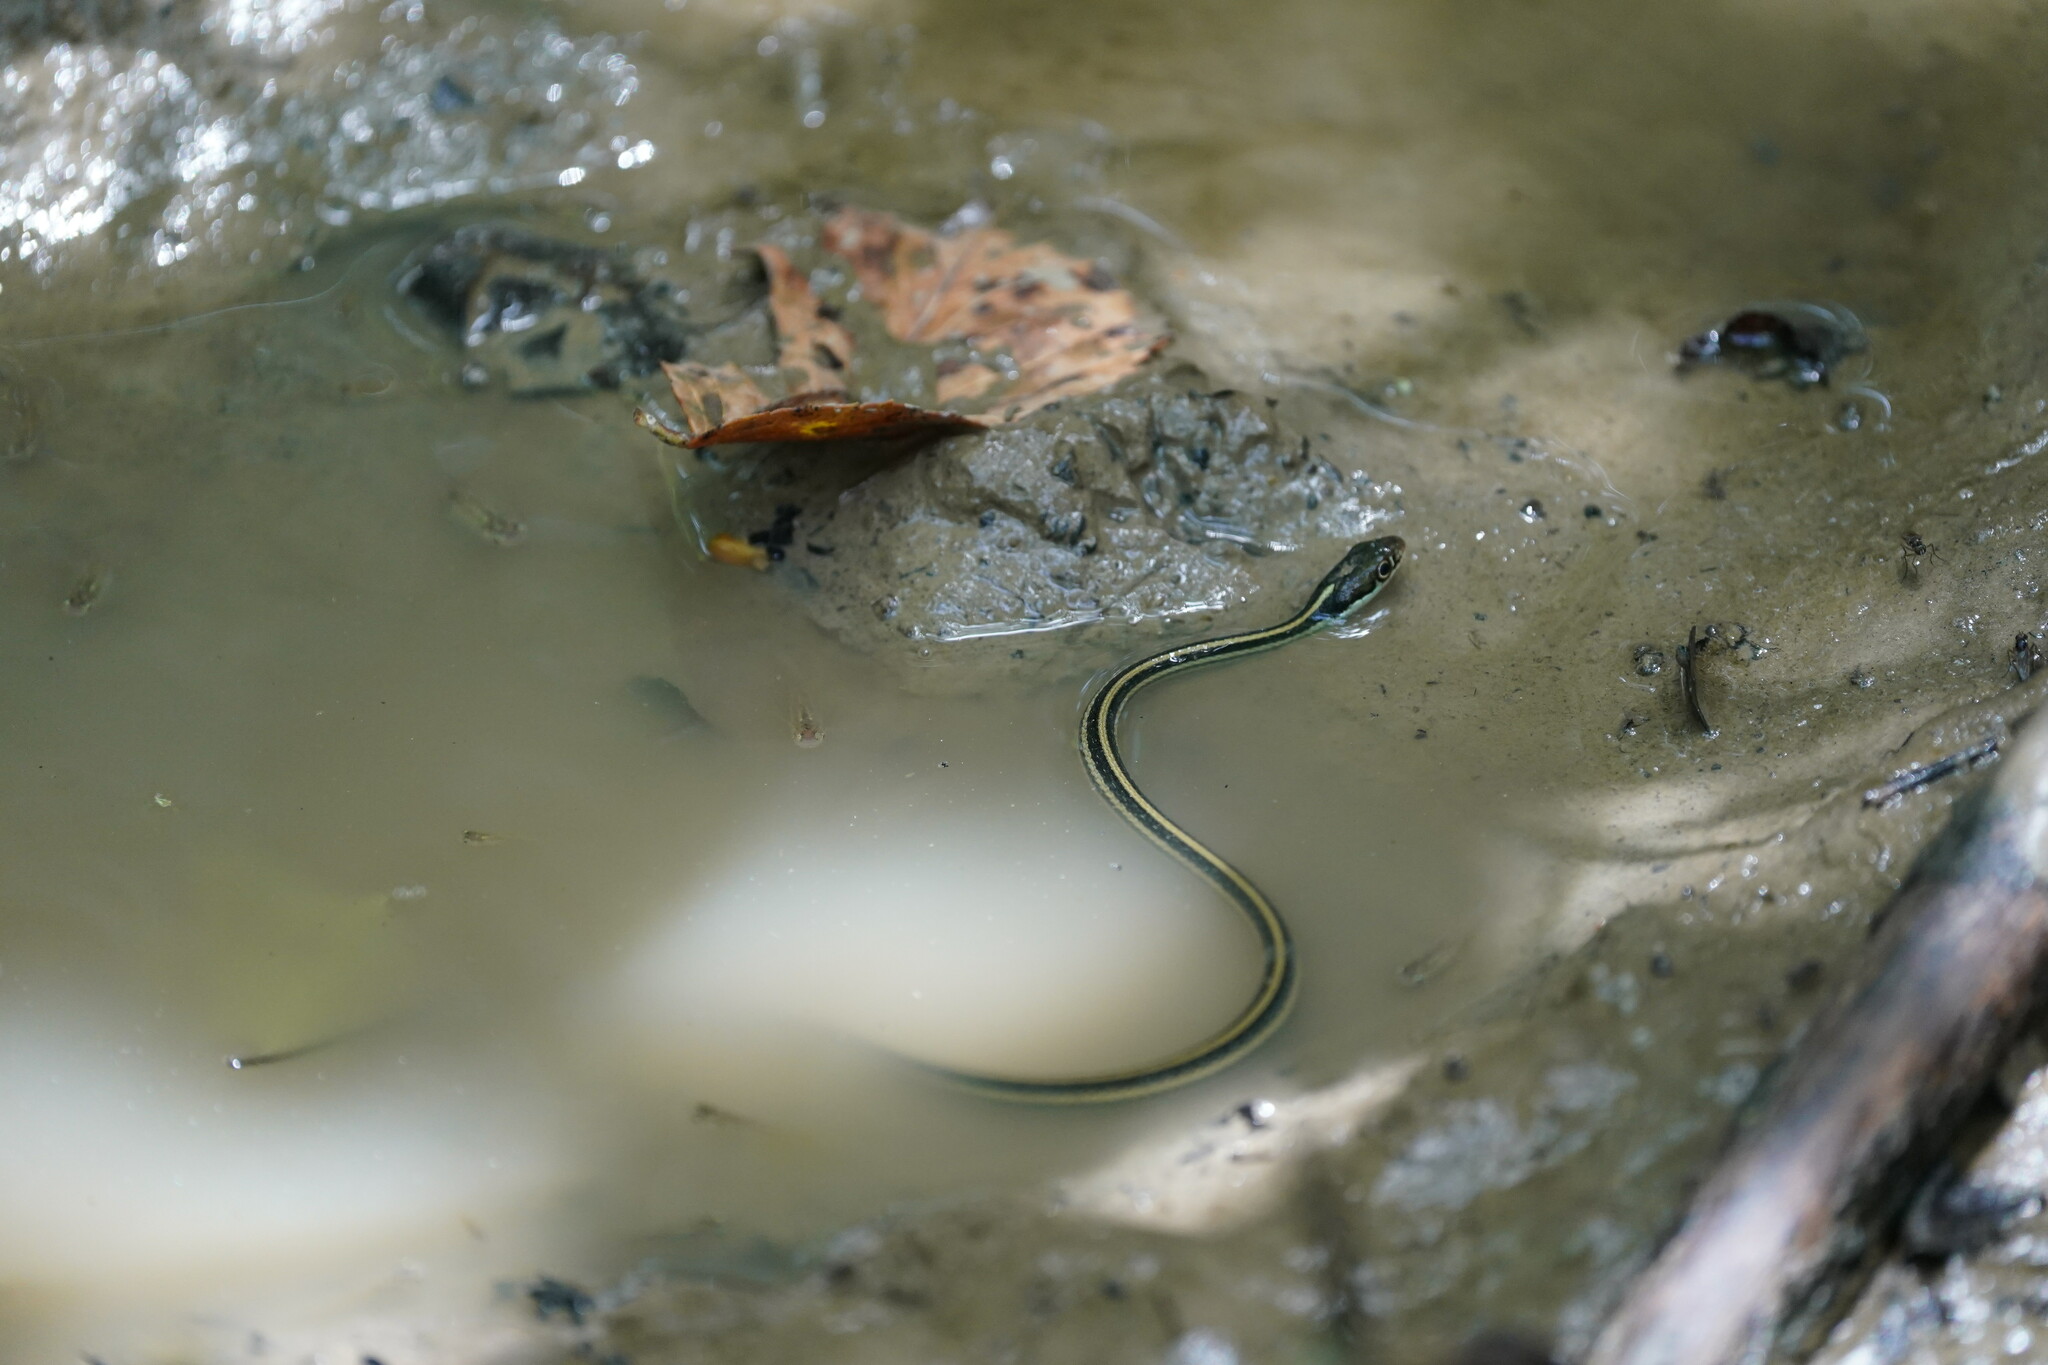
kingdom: Animalia
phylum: Chordata
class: Squamata
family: Colubridae
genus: Thamnophis
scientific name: Thamnophis proximus
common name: Western ribbon snake
